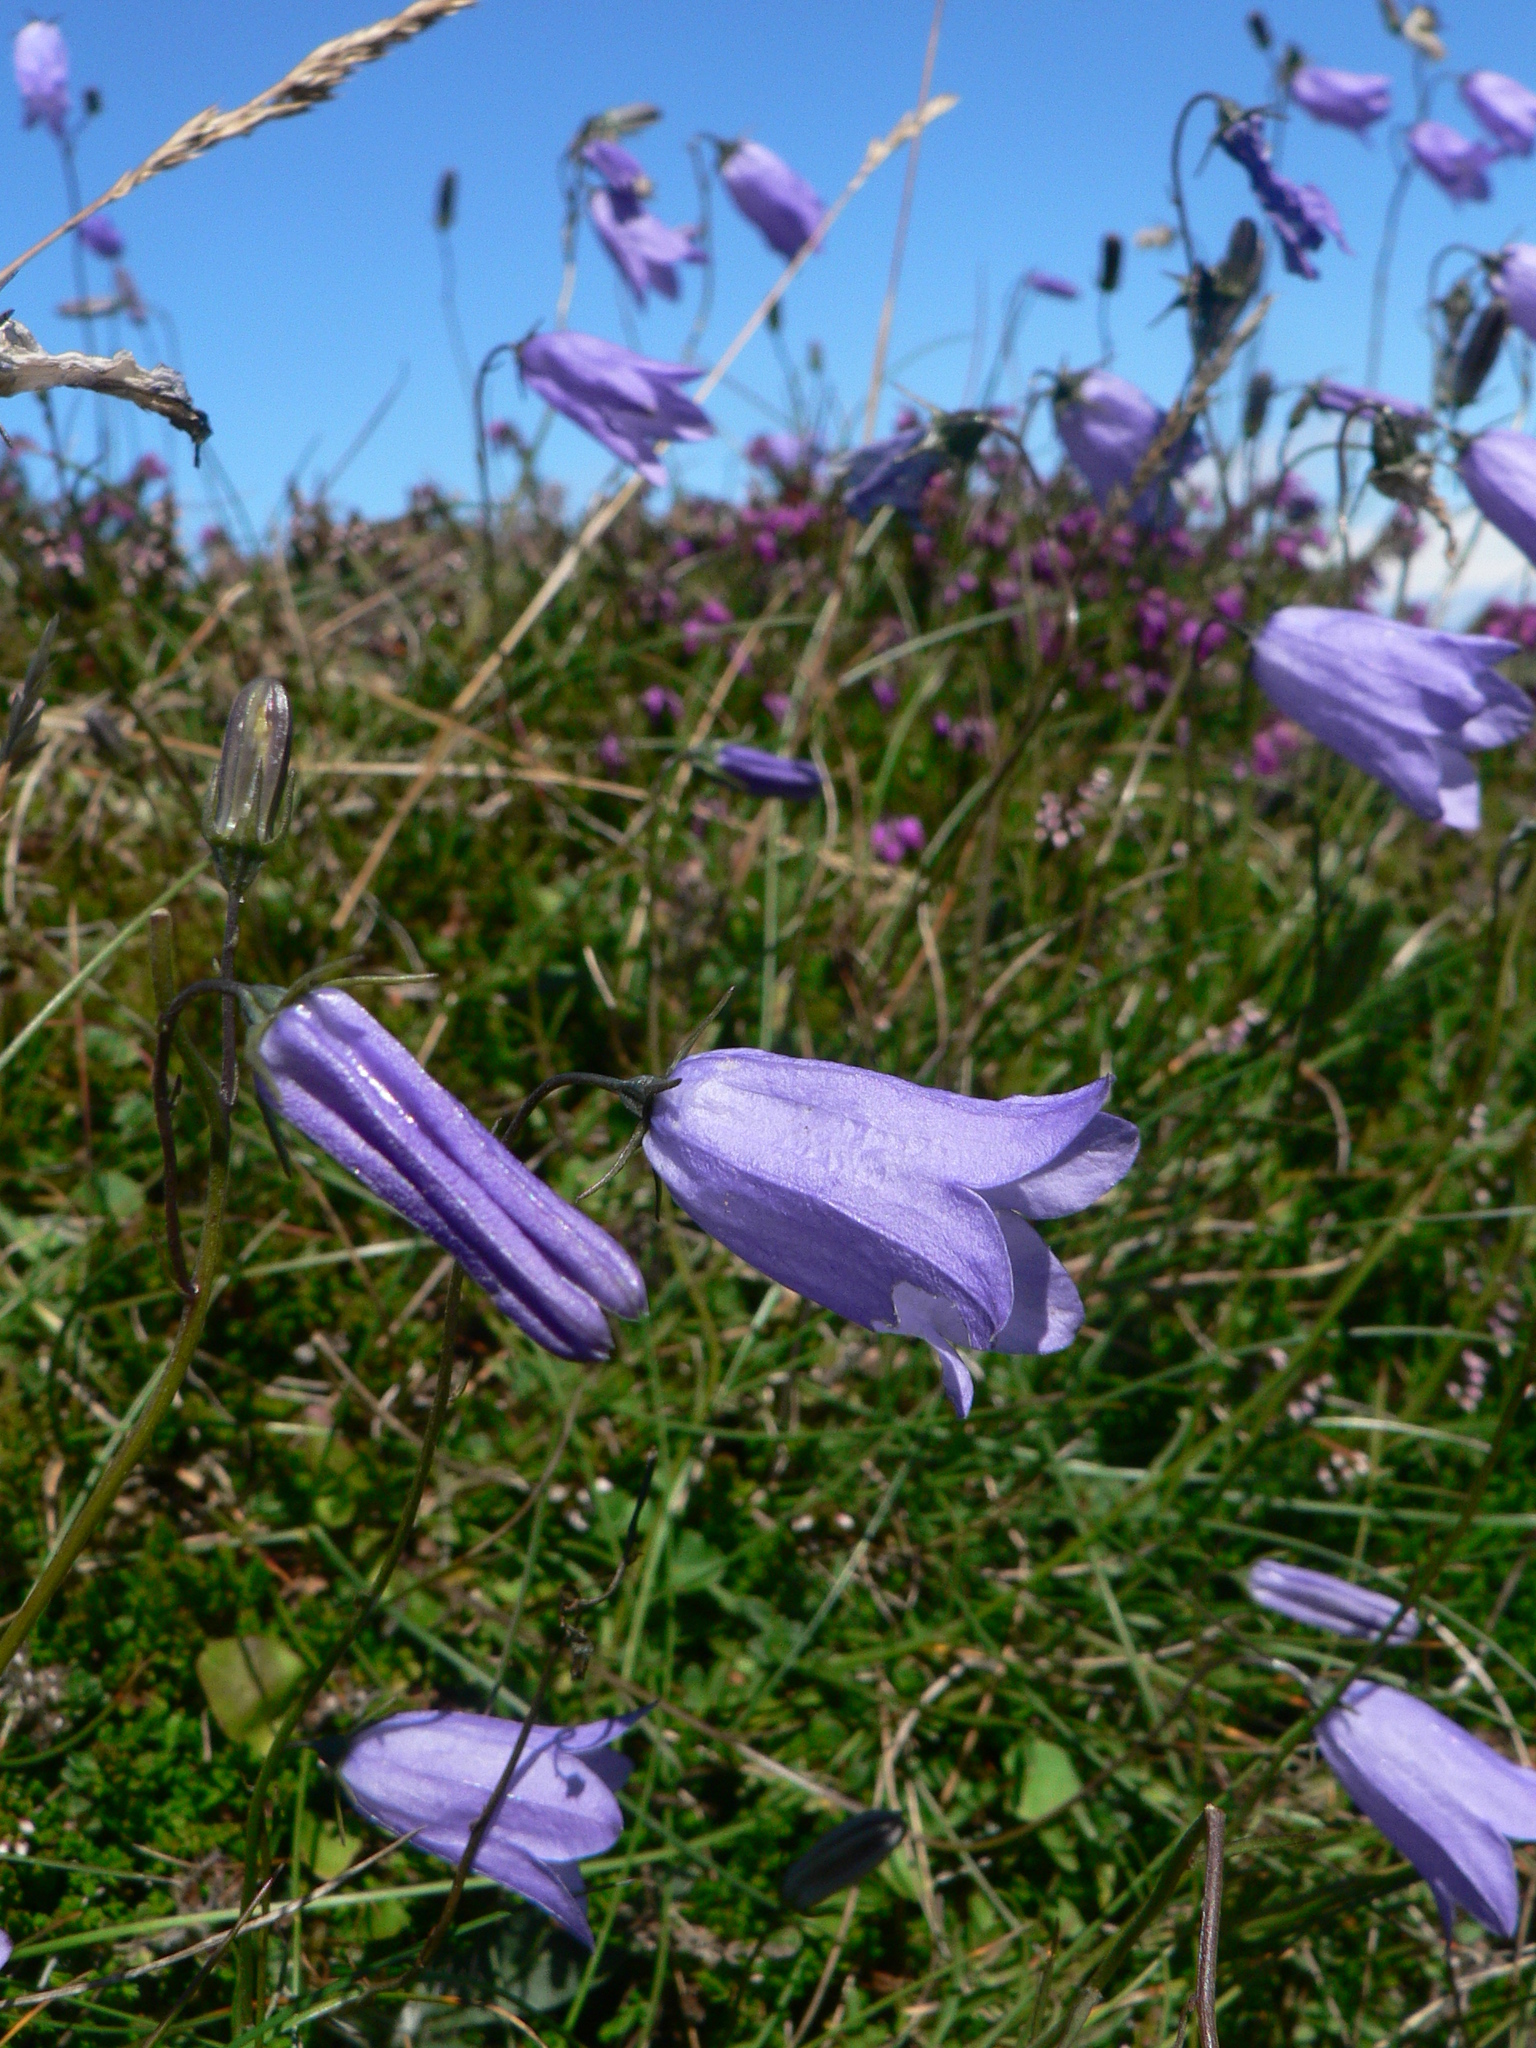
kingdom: Plantae
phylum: Tracheophyta
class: Magnoliopsida
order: Asterales
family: Campanulaceae
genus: Campanula
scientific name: Campanula rotundifolia
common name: Harebell
